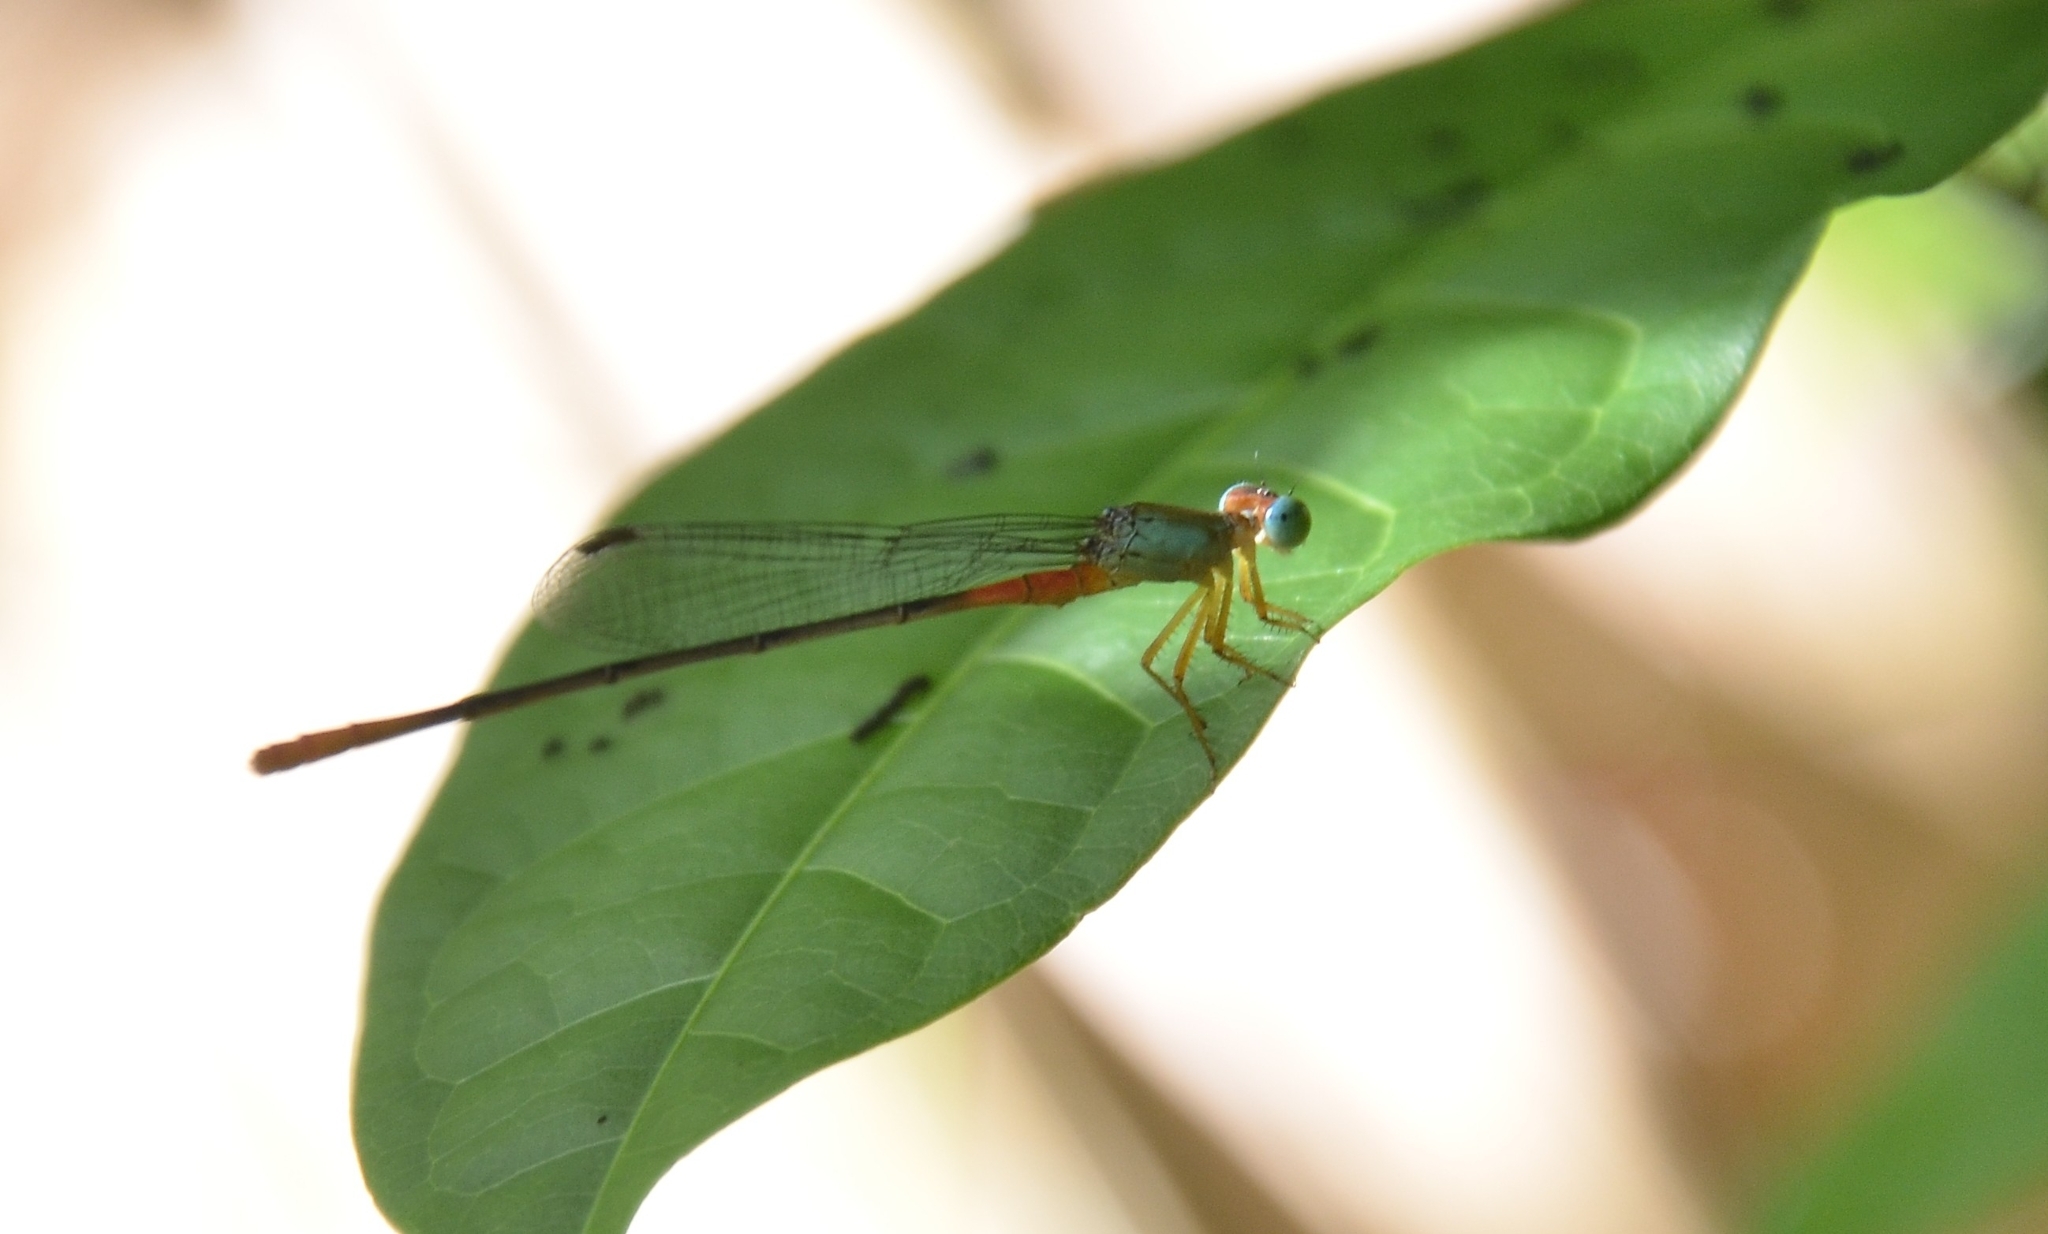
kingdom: Animalia
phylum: Arthropoda
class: Insecta
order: Odonata
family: Coenagrionidae
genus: Ceriagrion
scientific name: Ceriagrion cerinorubellum
